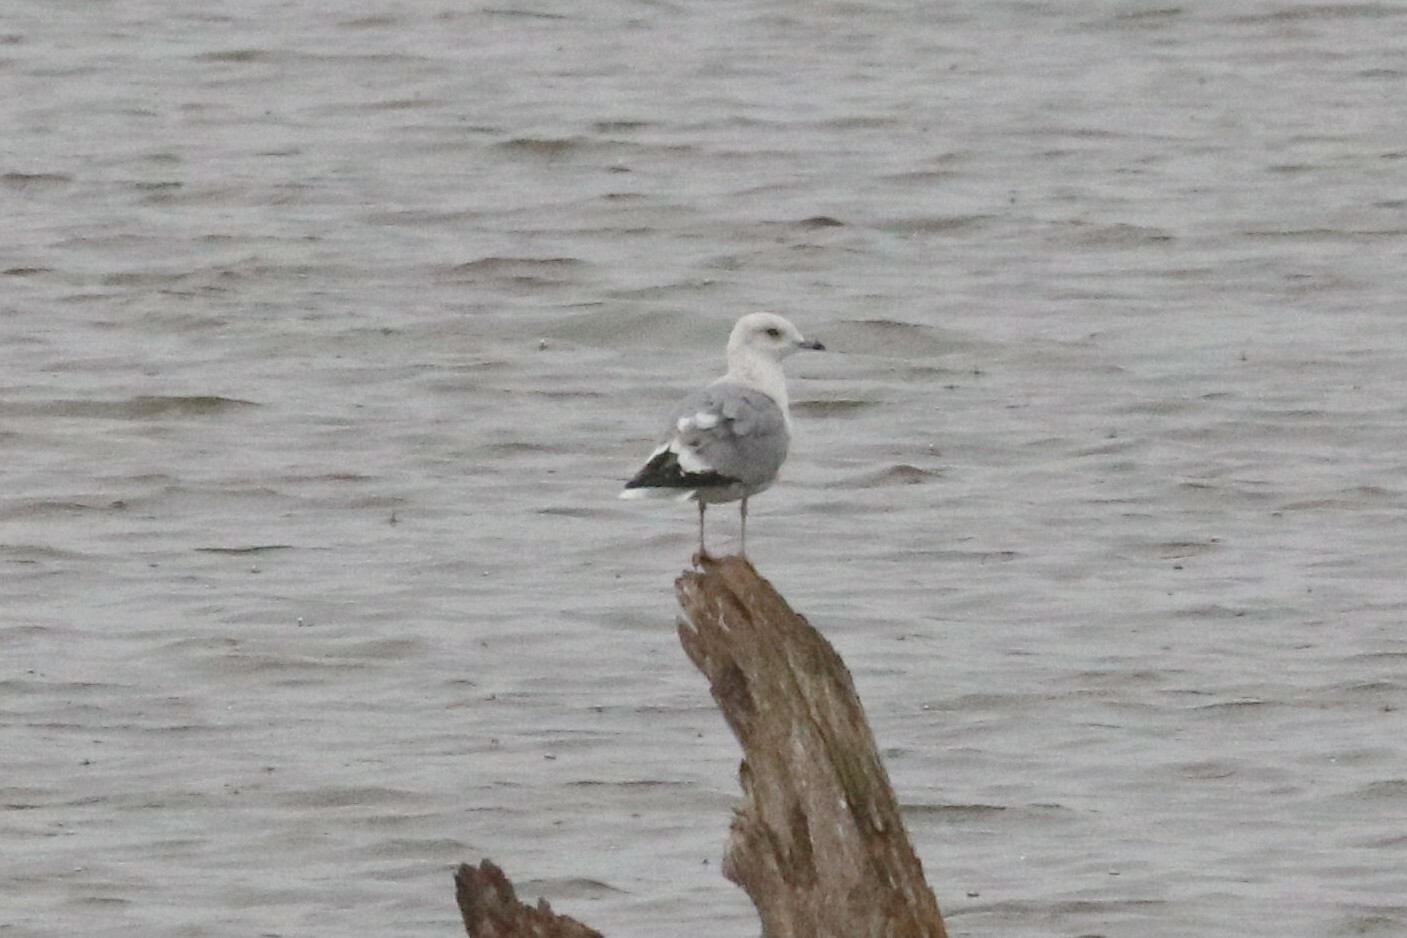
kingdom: Animalia
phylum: Chordata
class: Aves
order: Charadriiformes
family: Laridae
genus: Larus
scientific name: Larus canus
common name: Mew gull
